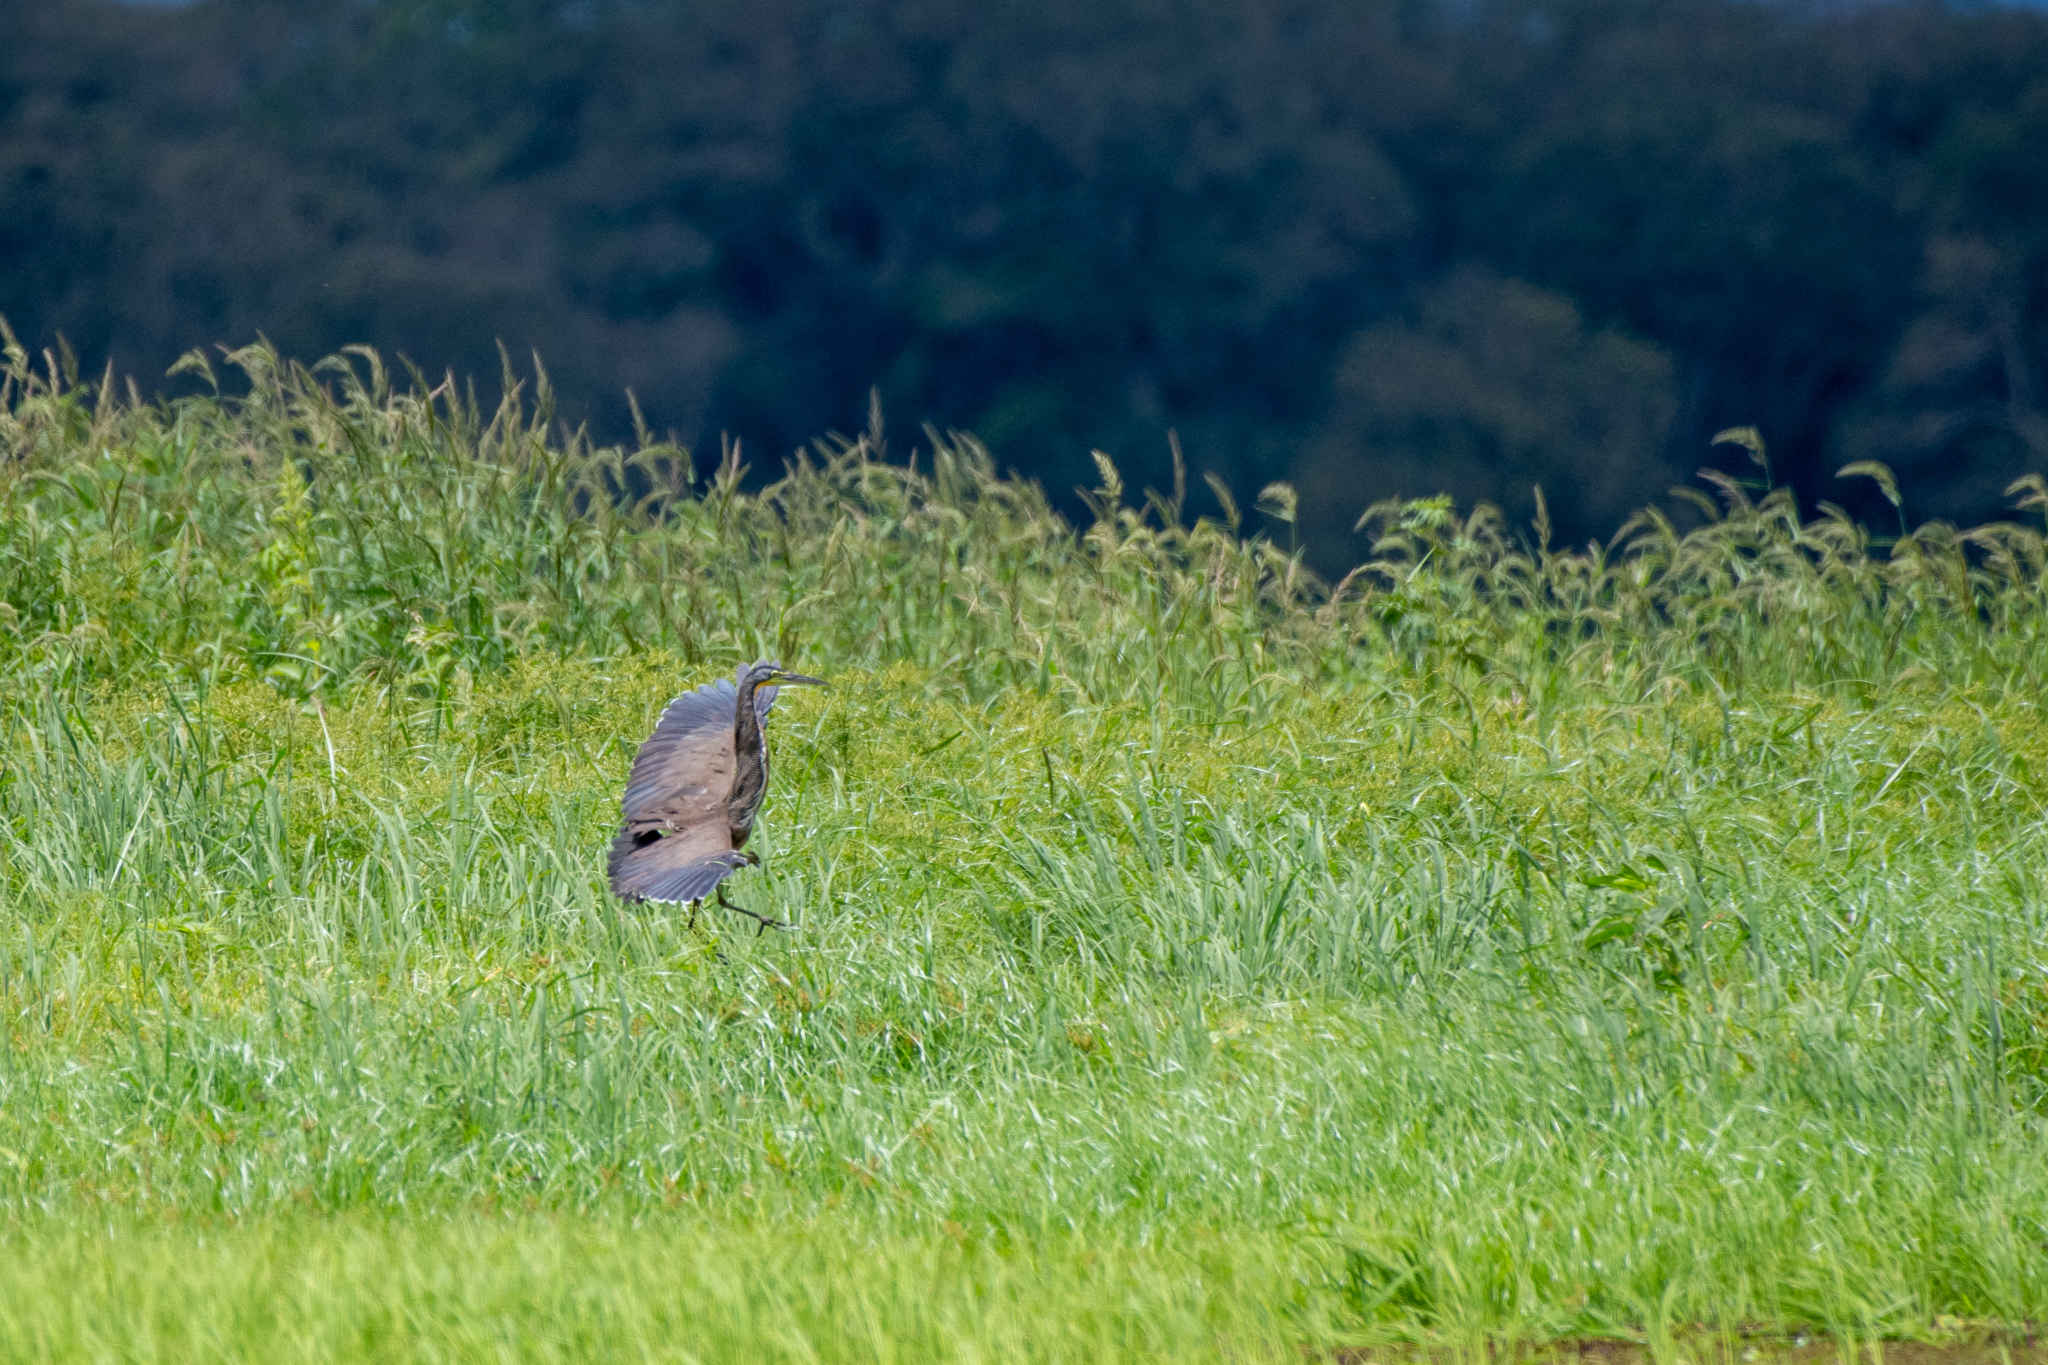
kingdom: Animalia
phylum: Chordata
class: Aves
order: Pelecaniformes
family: Ardeidae
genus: Tigrisoma
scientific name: Tigrisoma mexicanum
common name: Bare-throated tiger-heron
